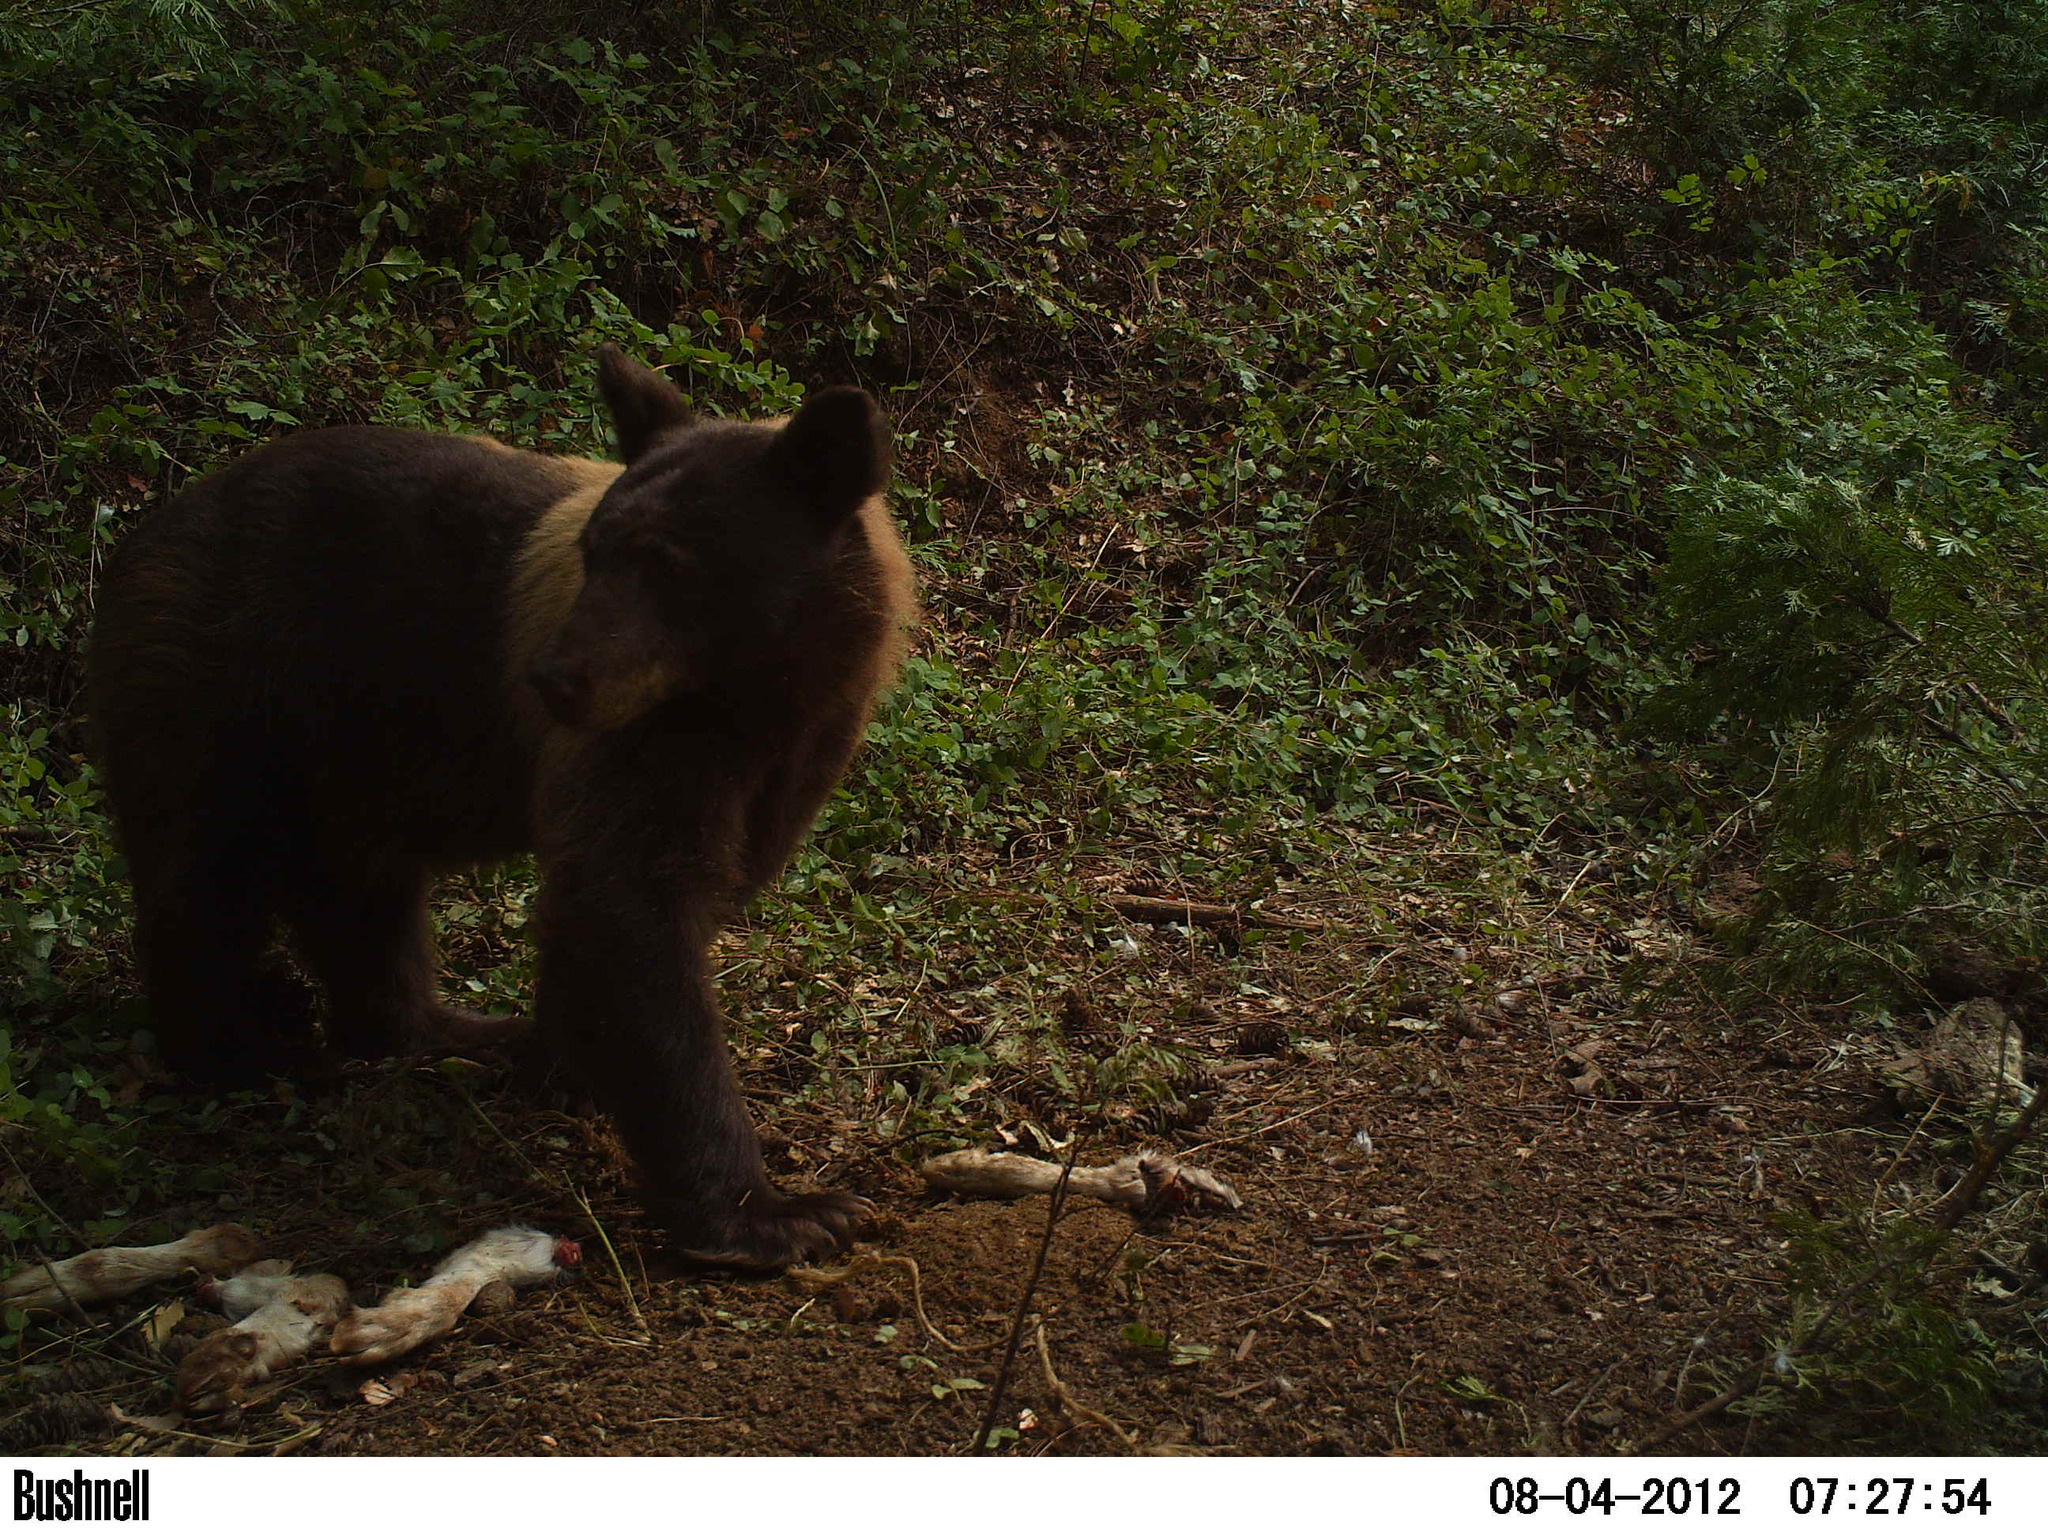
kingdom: Animalia
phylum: Chordata
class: Mammalia
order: Carnivora
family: Ursidae
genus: Ursus
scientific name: Ursus americanus
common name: American black bear
